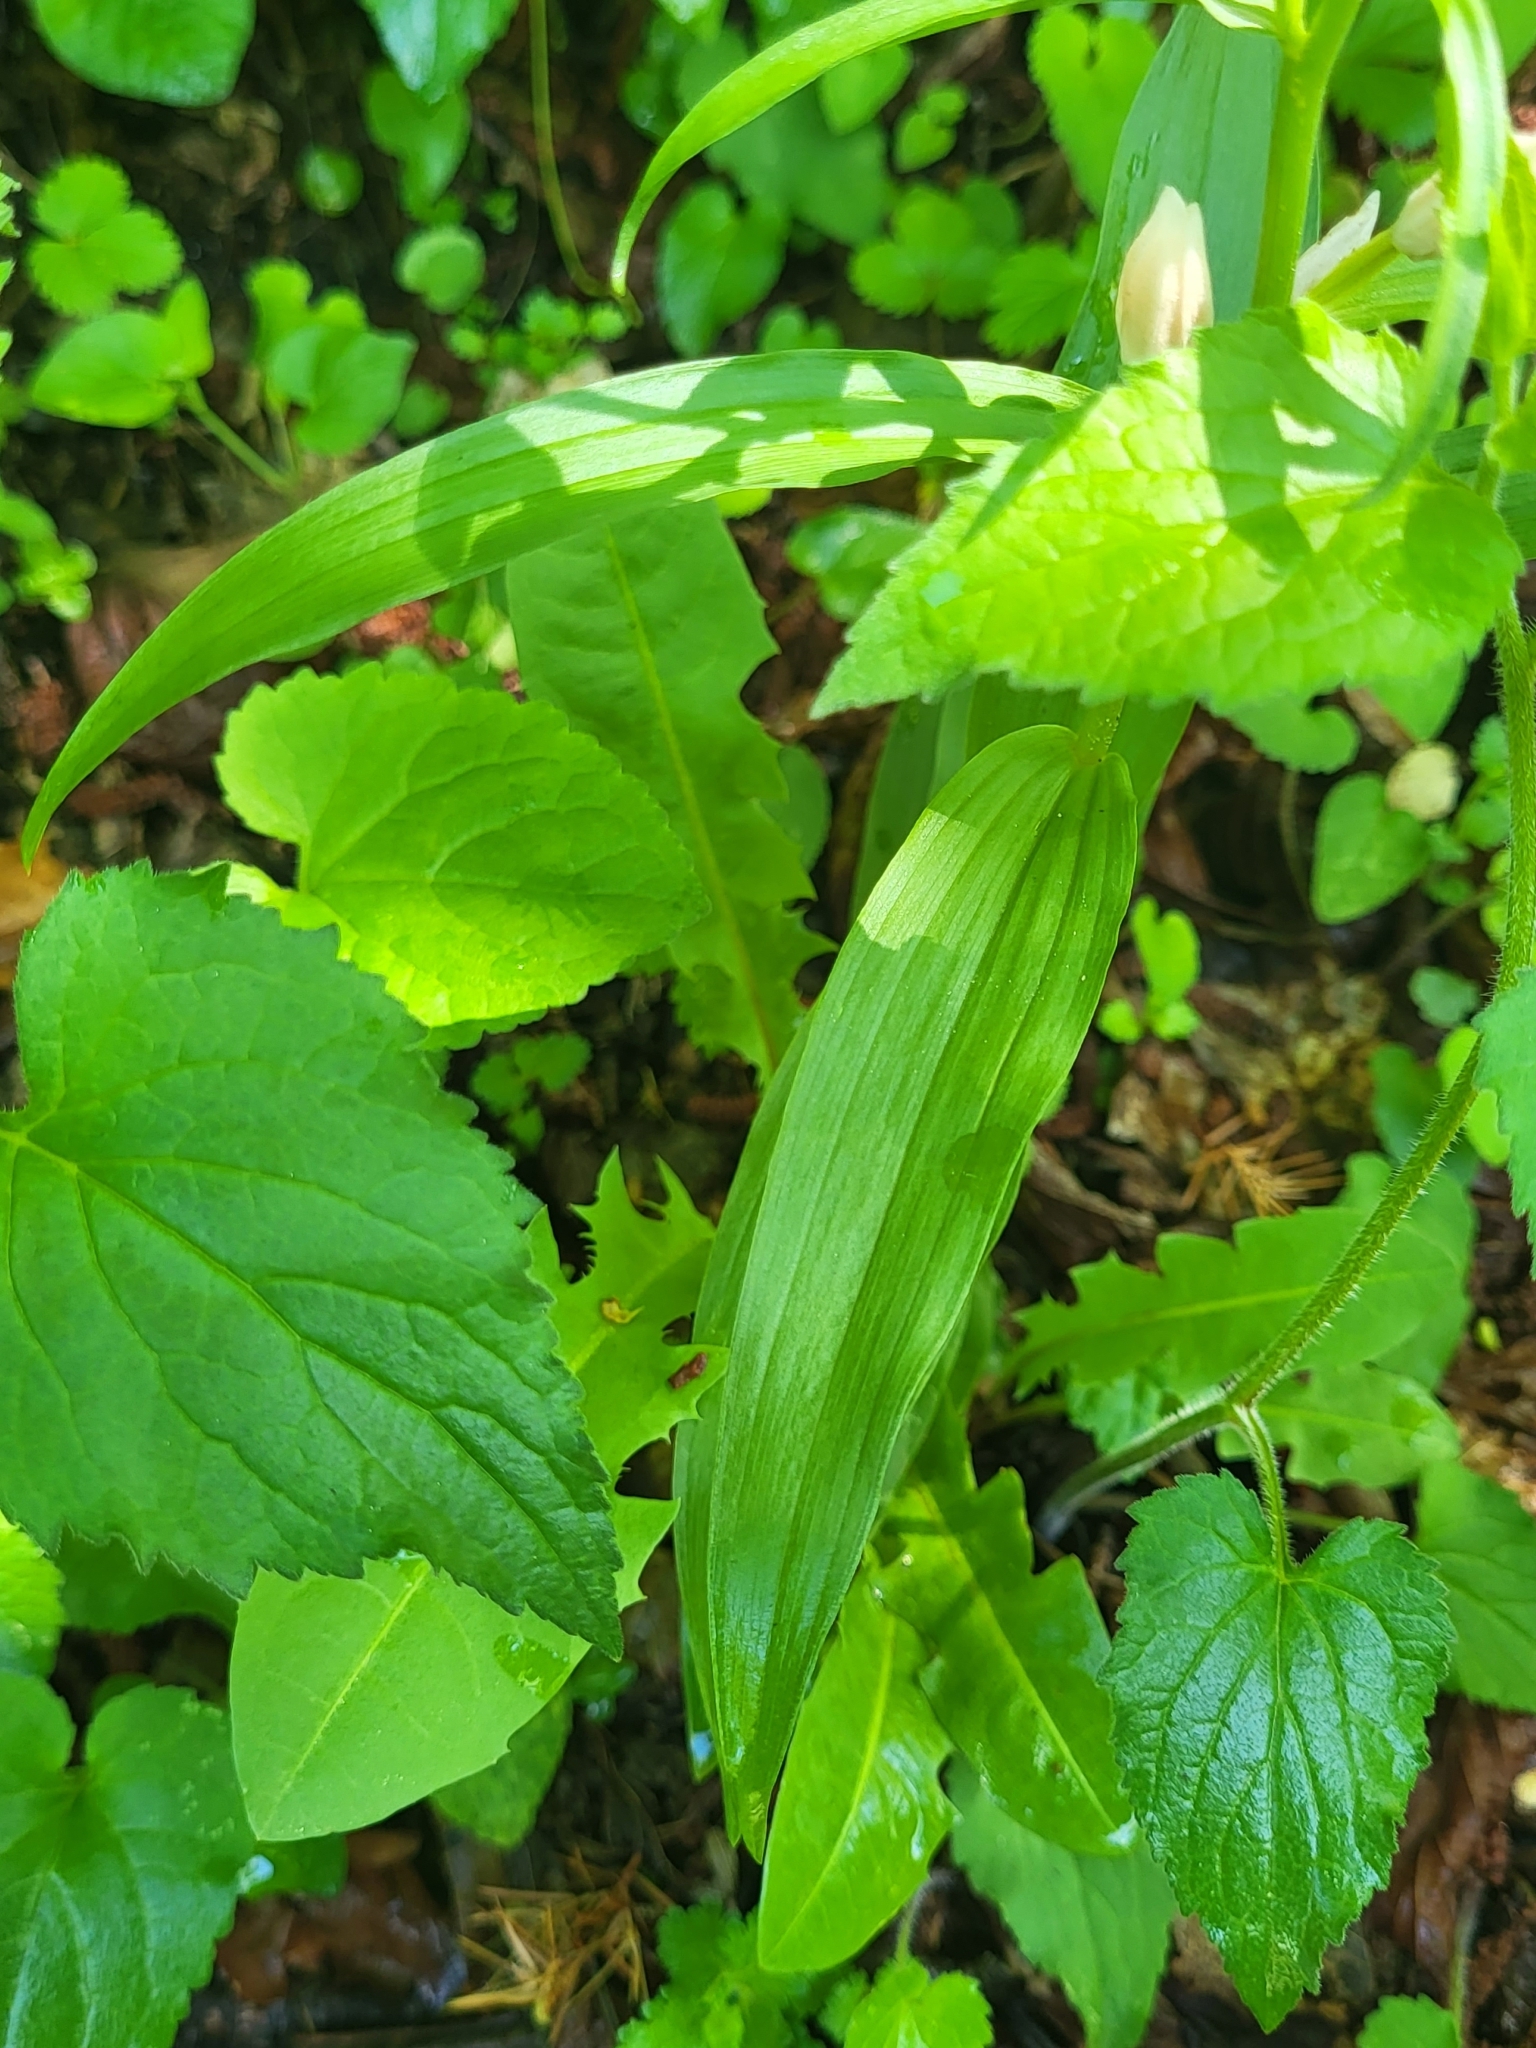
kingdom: Plantae
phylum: Tracheophyta
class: Liliopsida
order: Asparagales
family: Orchidaceae
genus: Cephalanthera
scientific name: Cephalanthera longifolia
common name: Narrow-leaved helleborine
